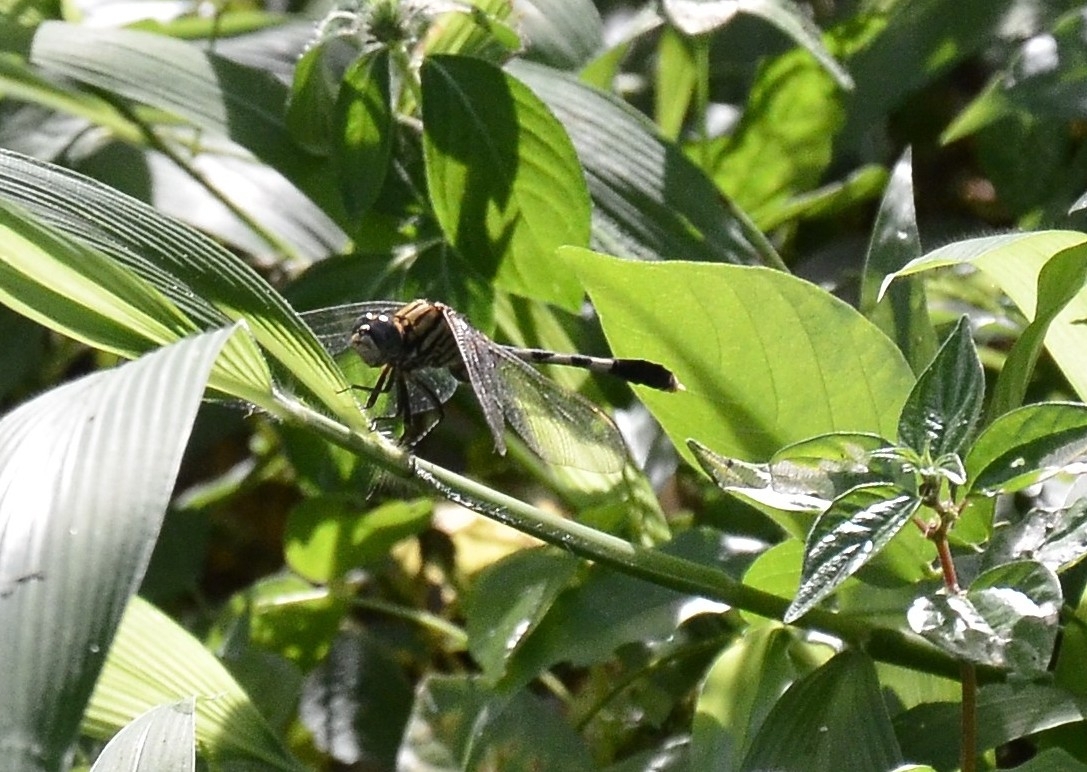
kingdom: Animalia
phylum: Arthropoda
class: Insecta
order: Odonata
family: Libellulidae
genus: Orthetrum
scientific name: Orthetrum sabina
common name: Slender skimmer
